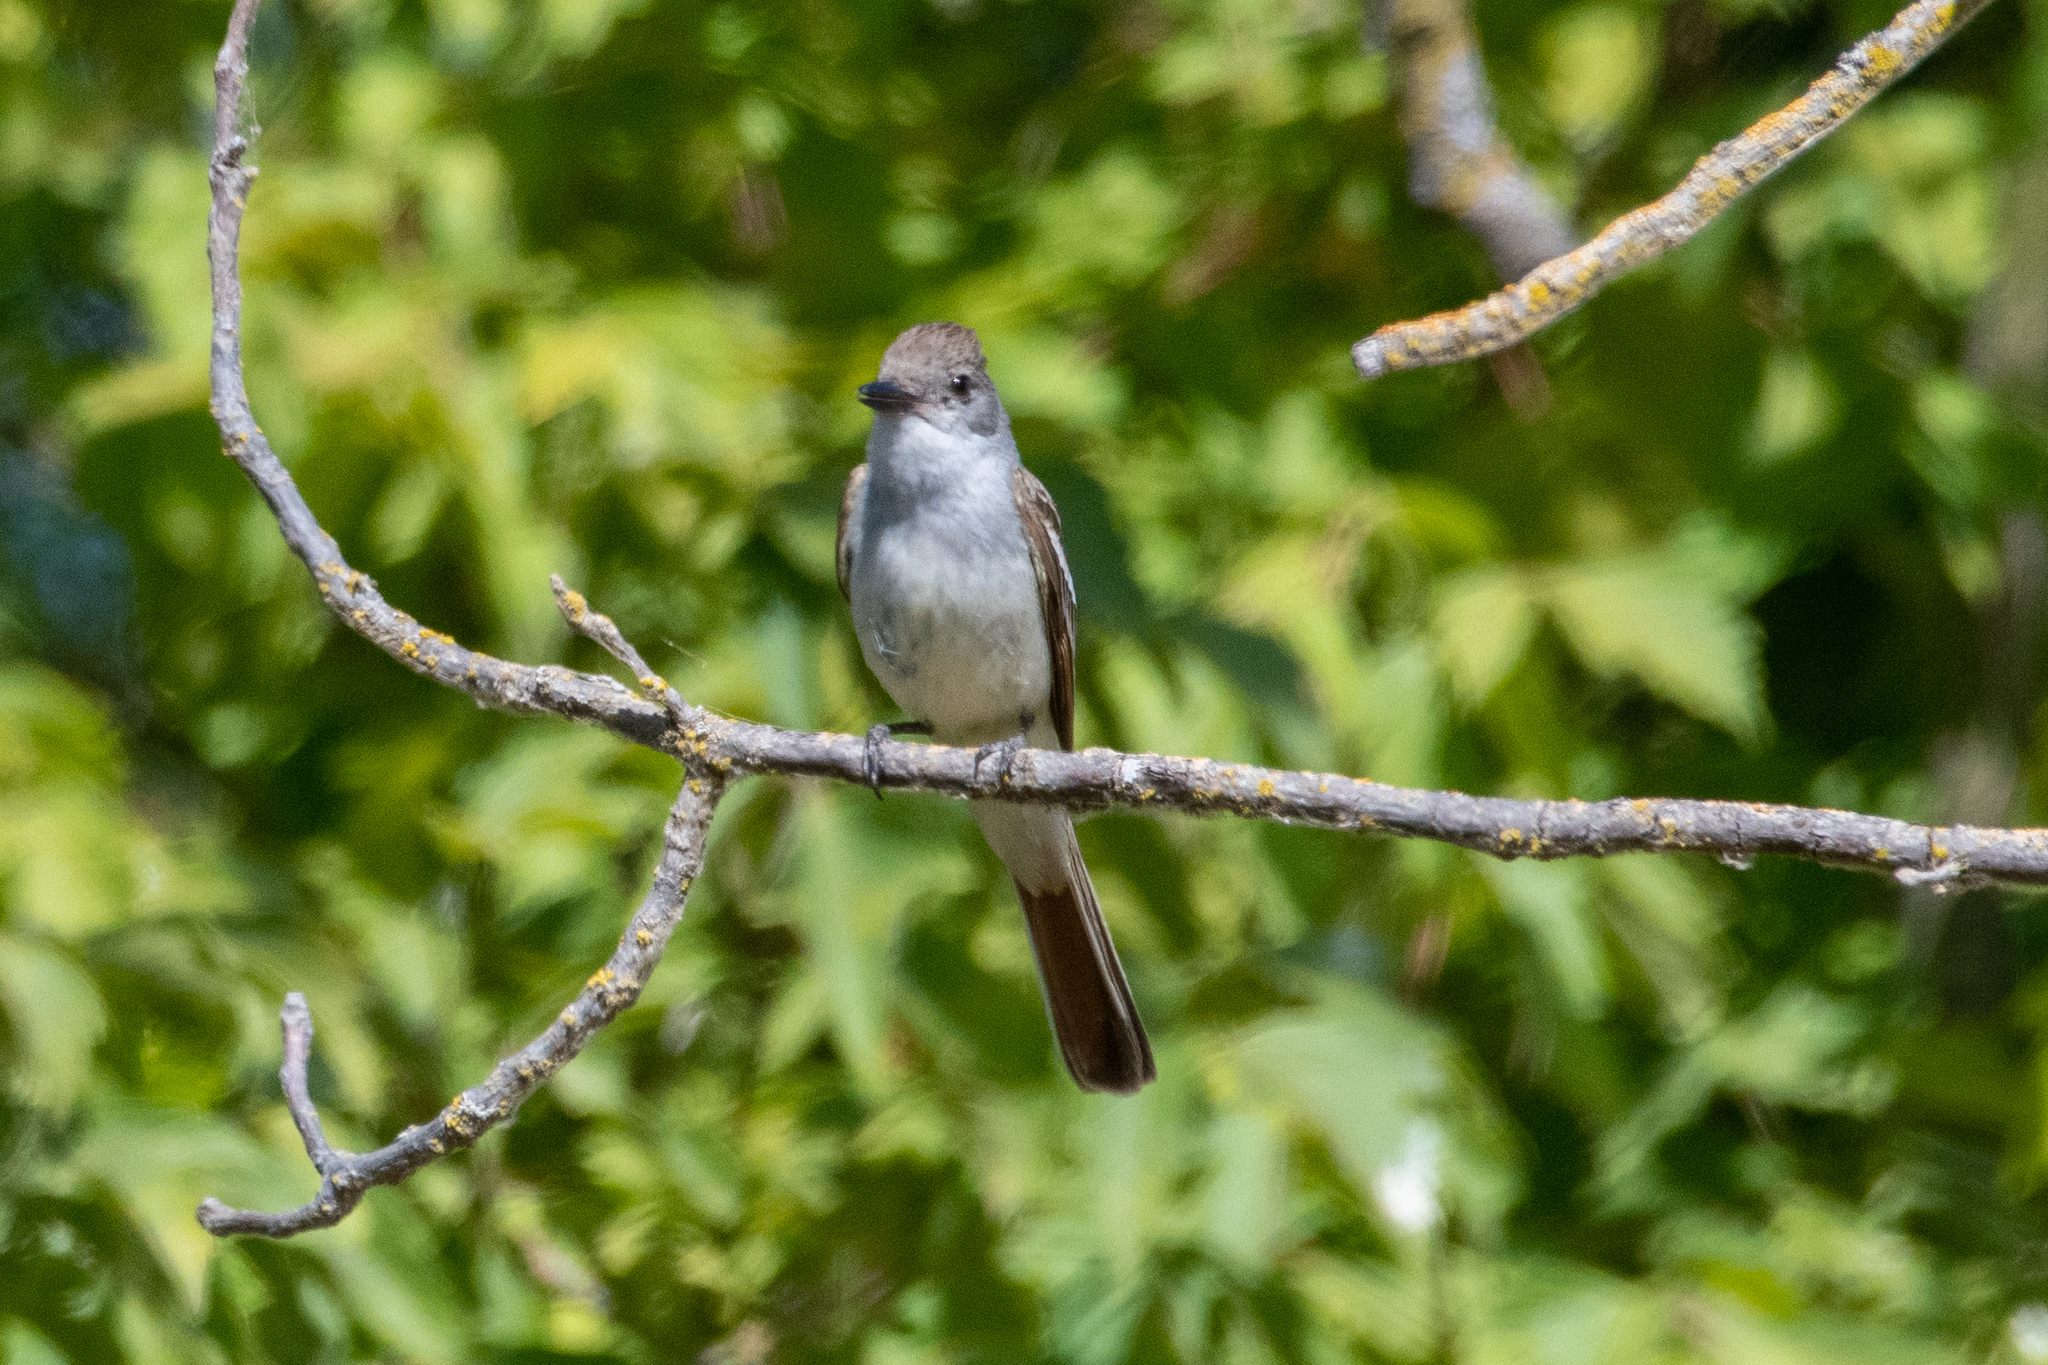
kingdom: Animalia
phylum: Chordata
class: Aves
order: Passeriformes
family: Tyrannidae
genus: Myiarchus
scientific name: Myiarchus cinerascens
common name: Ash-throated flycatcher
